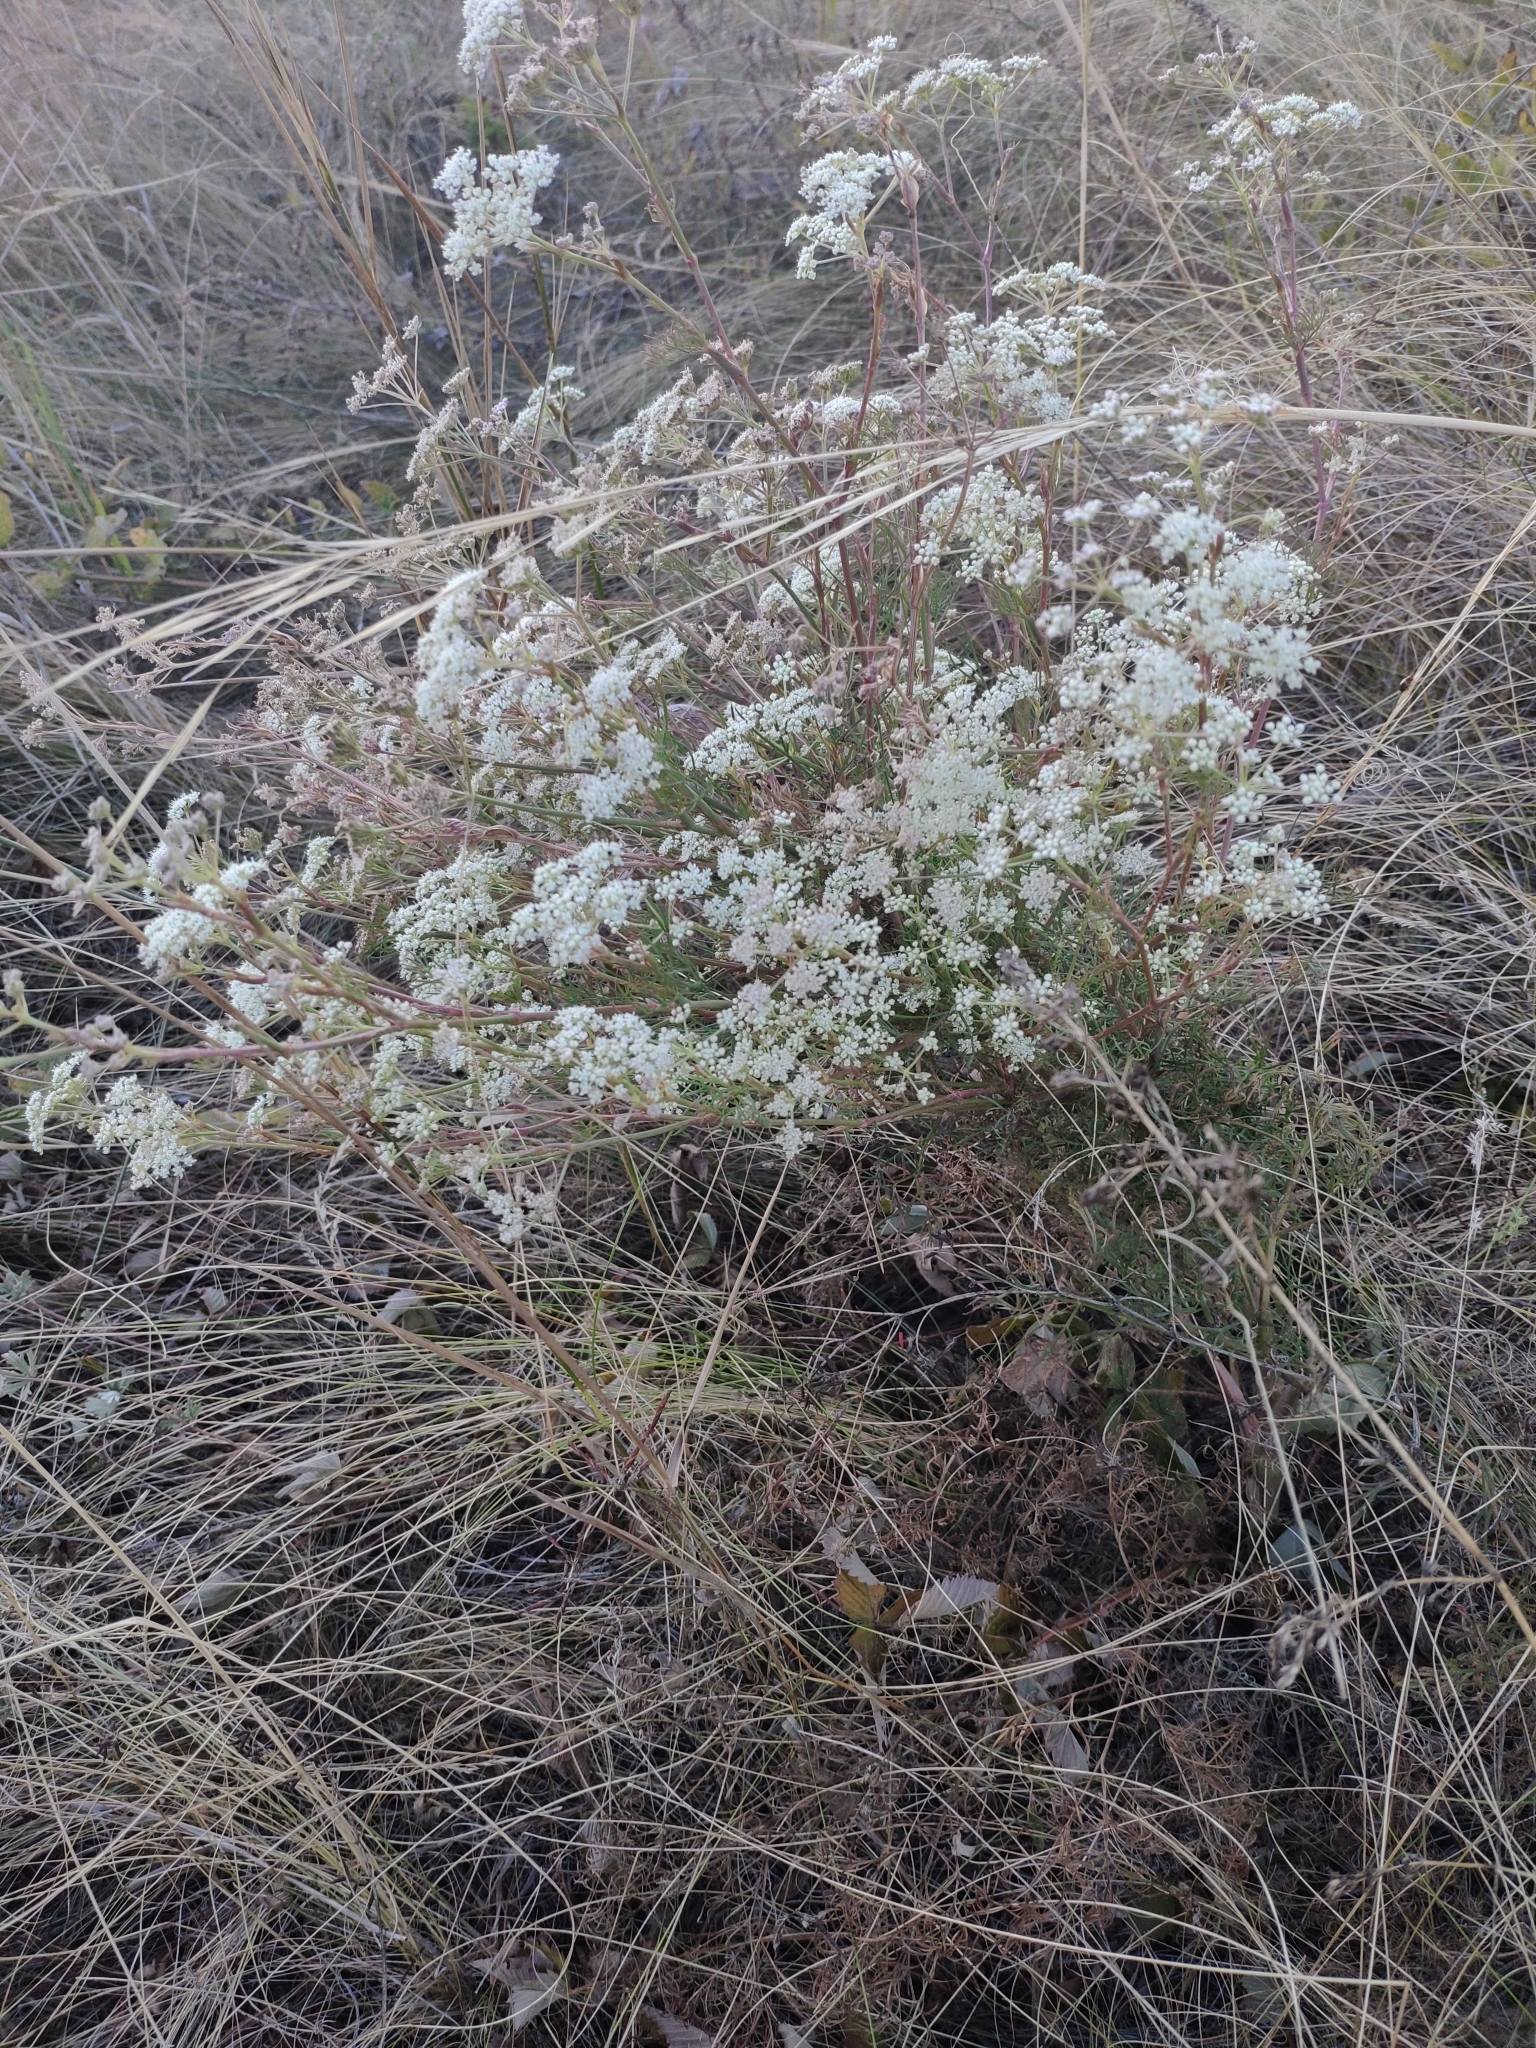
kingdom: Plantae
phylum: Tracheophyta
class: Magnoliopsida
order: Apiales
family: Apiaceae
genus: Seseli
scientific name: Seseli arenarium
